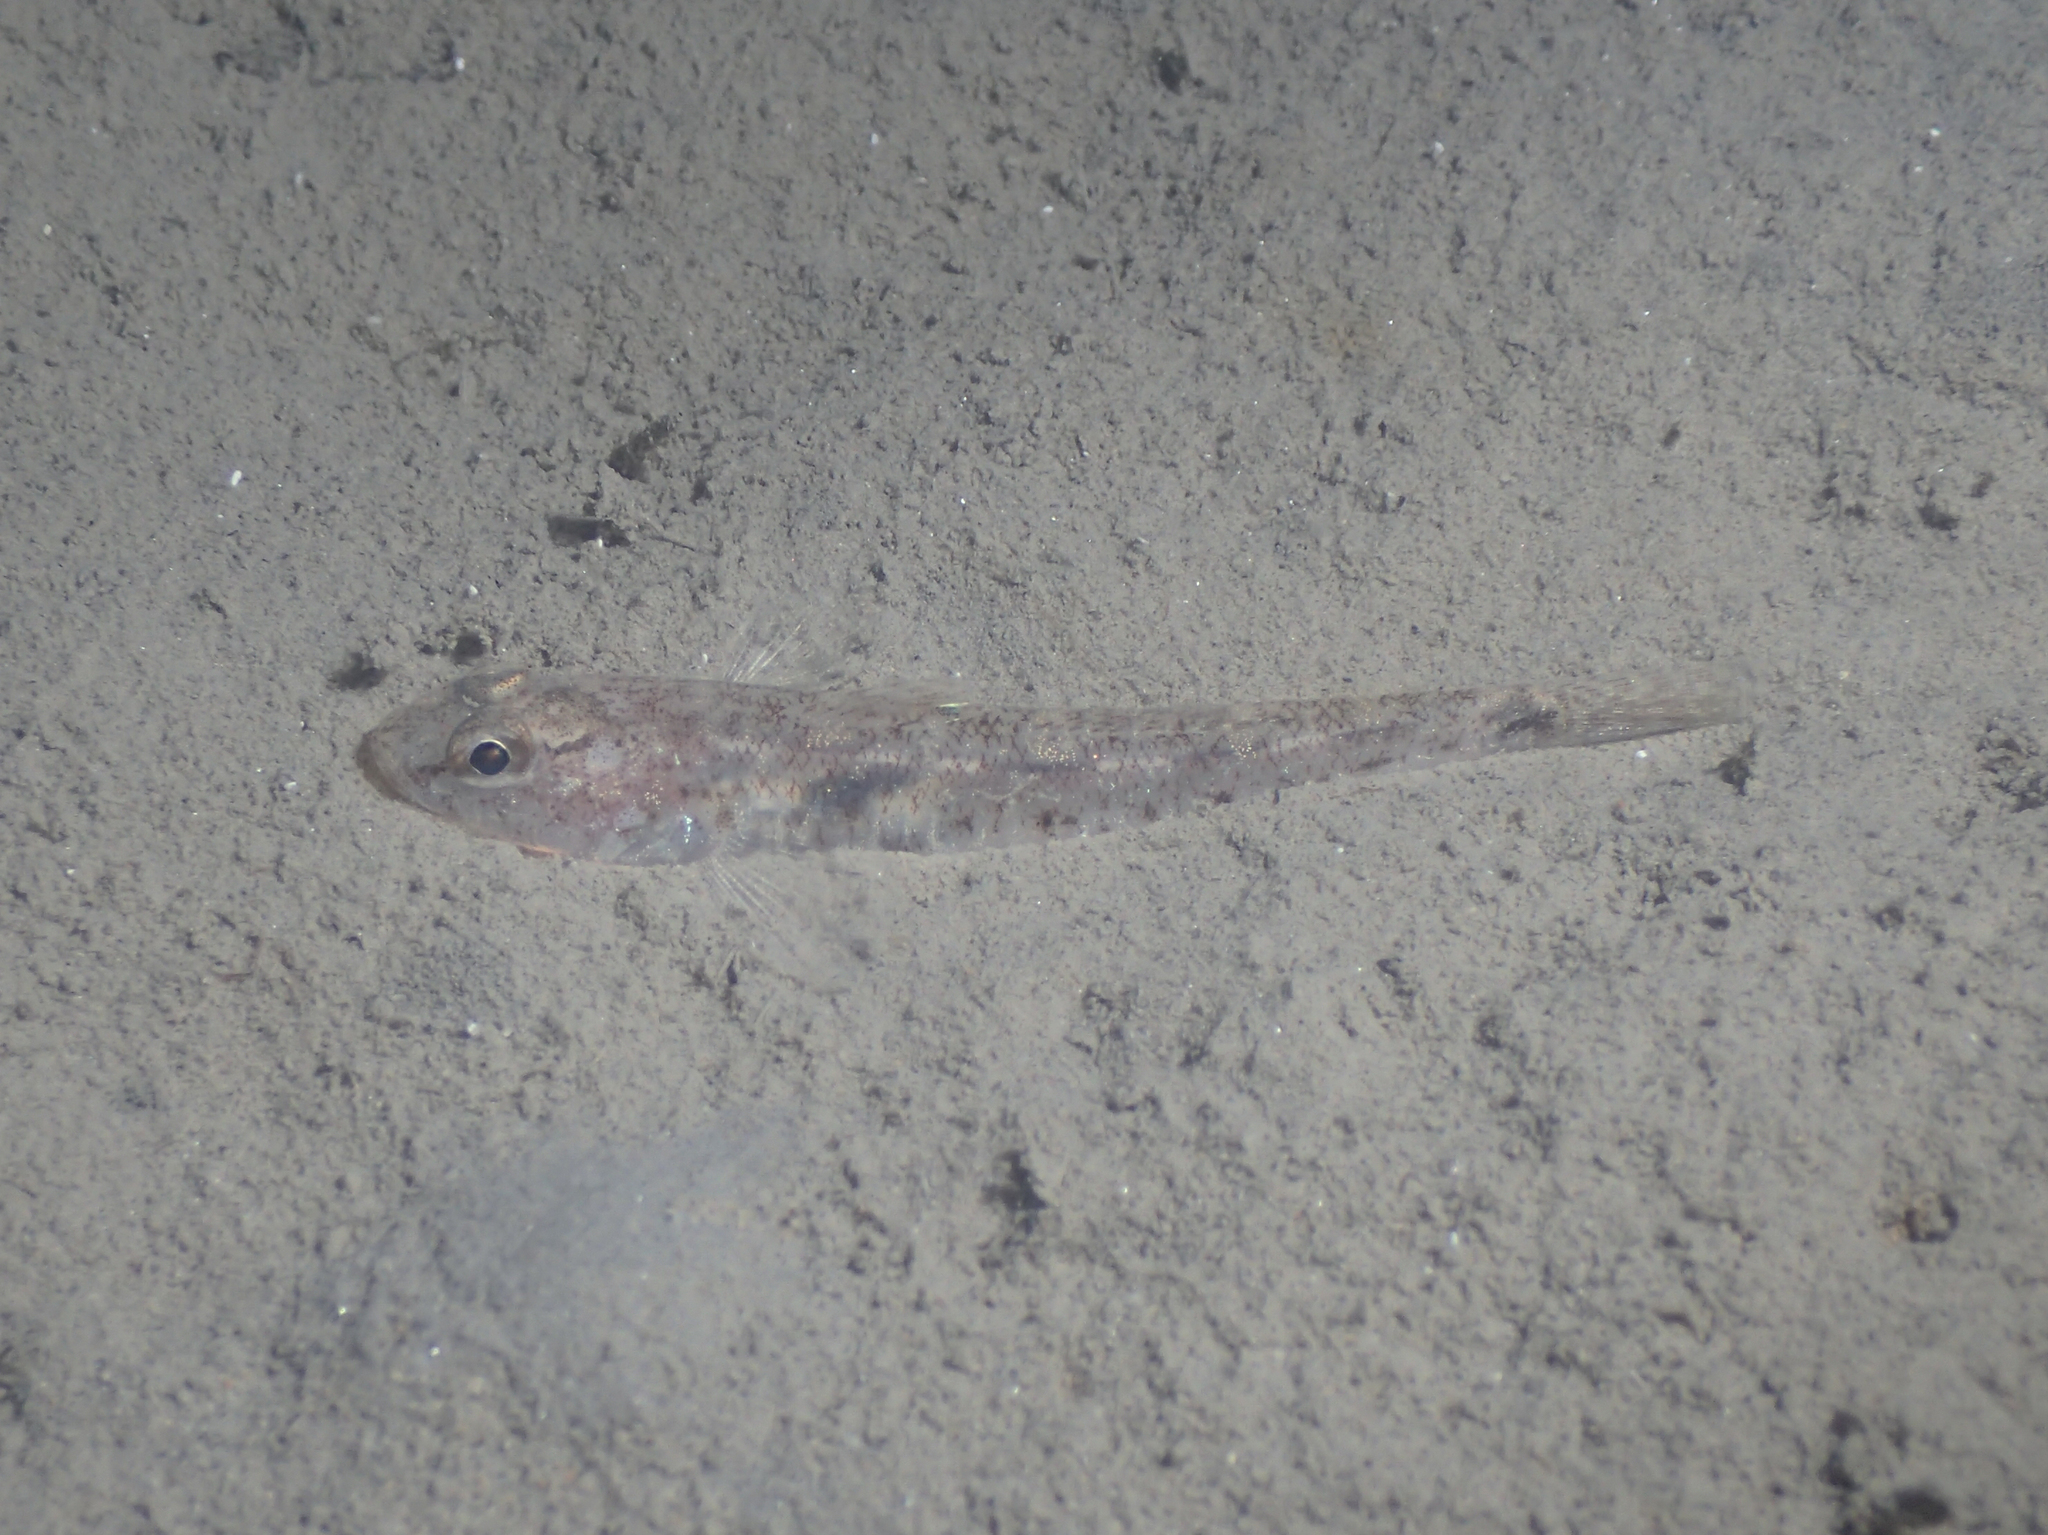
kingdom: Animalia
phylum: Chordata
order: Perciformes
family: Gobiidae
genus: Pomatoschistus
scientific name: Pomatoschistus minutus
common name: Sand goby
